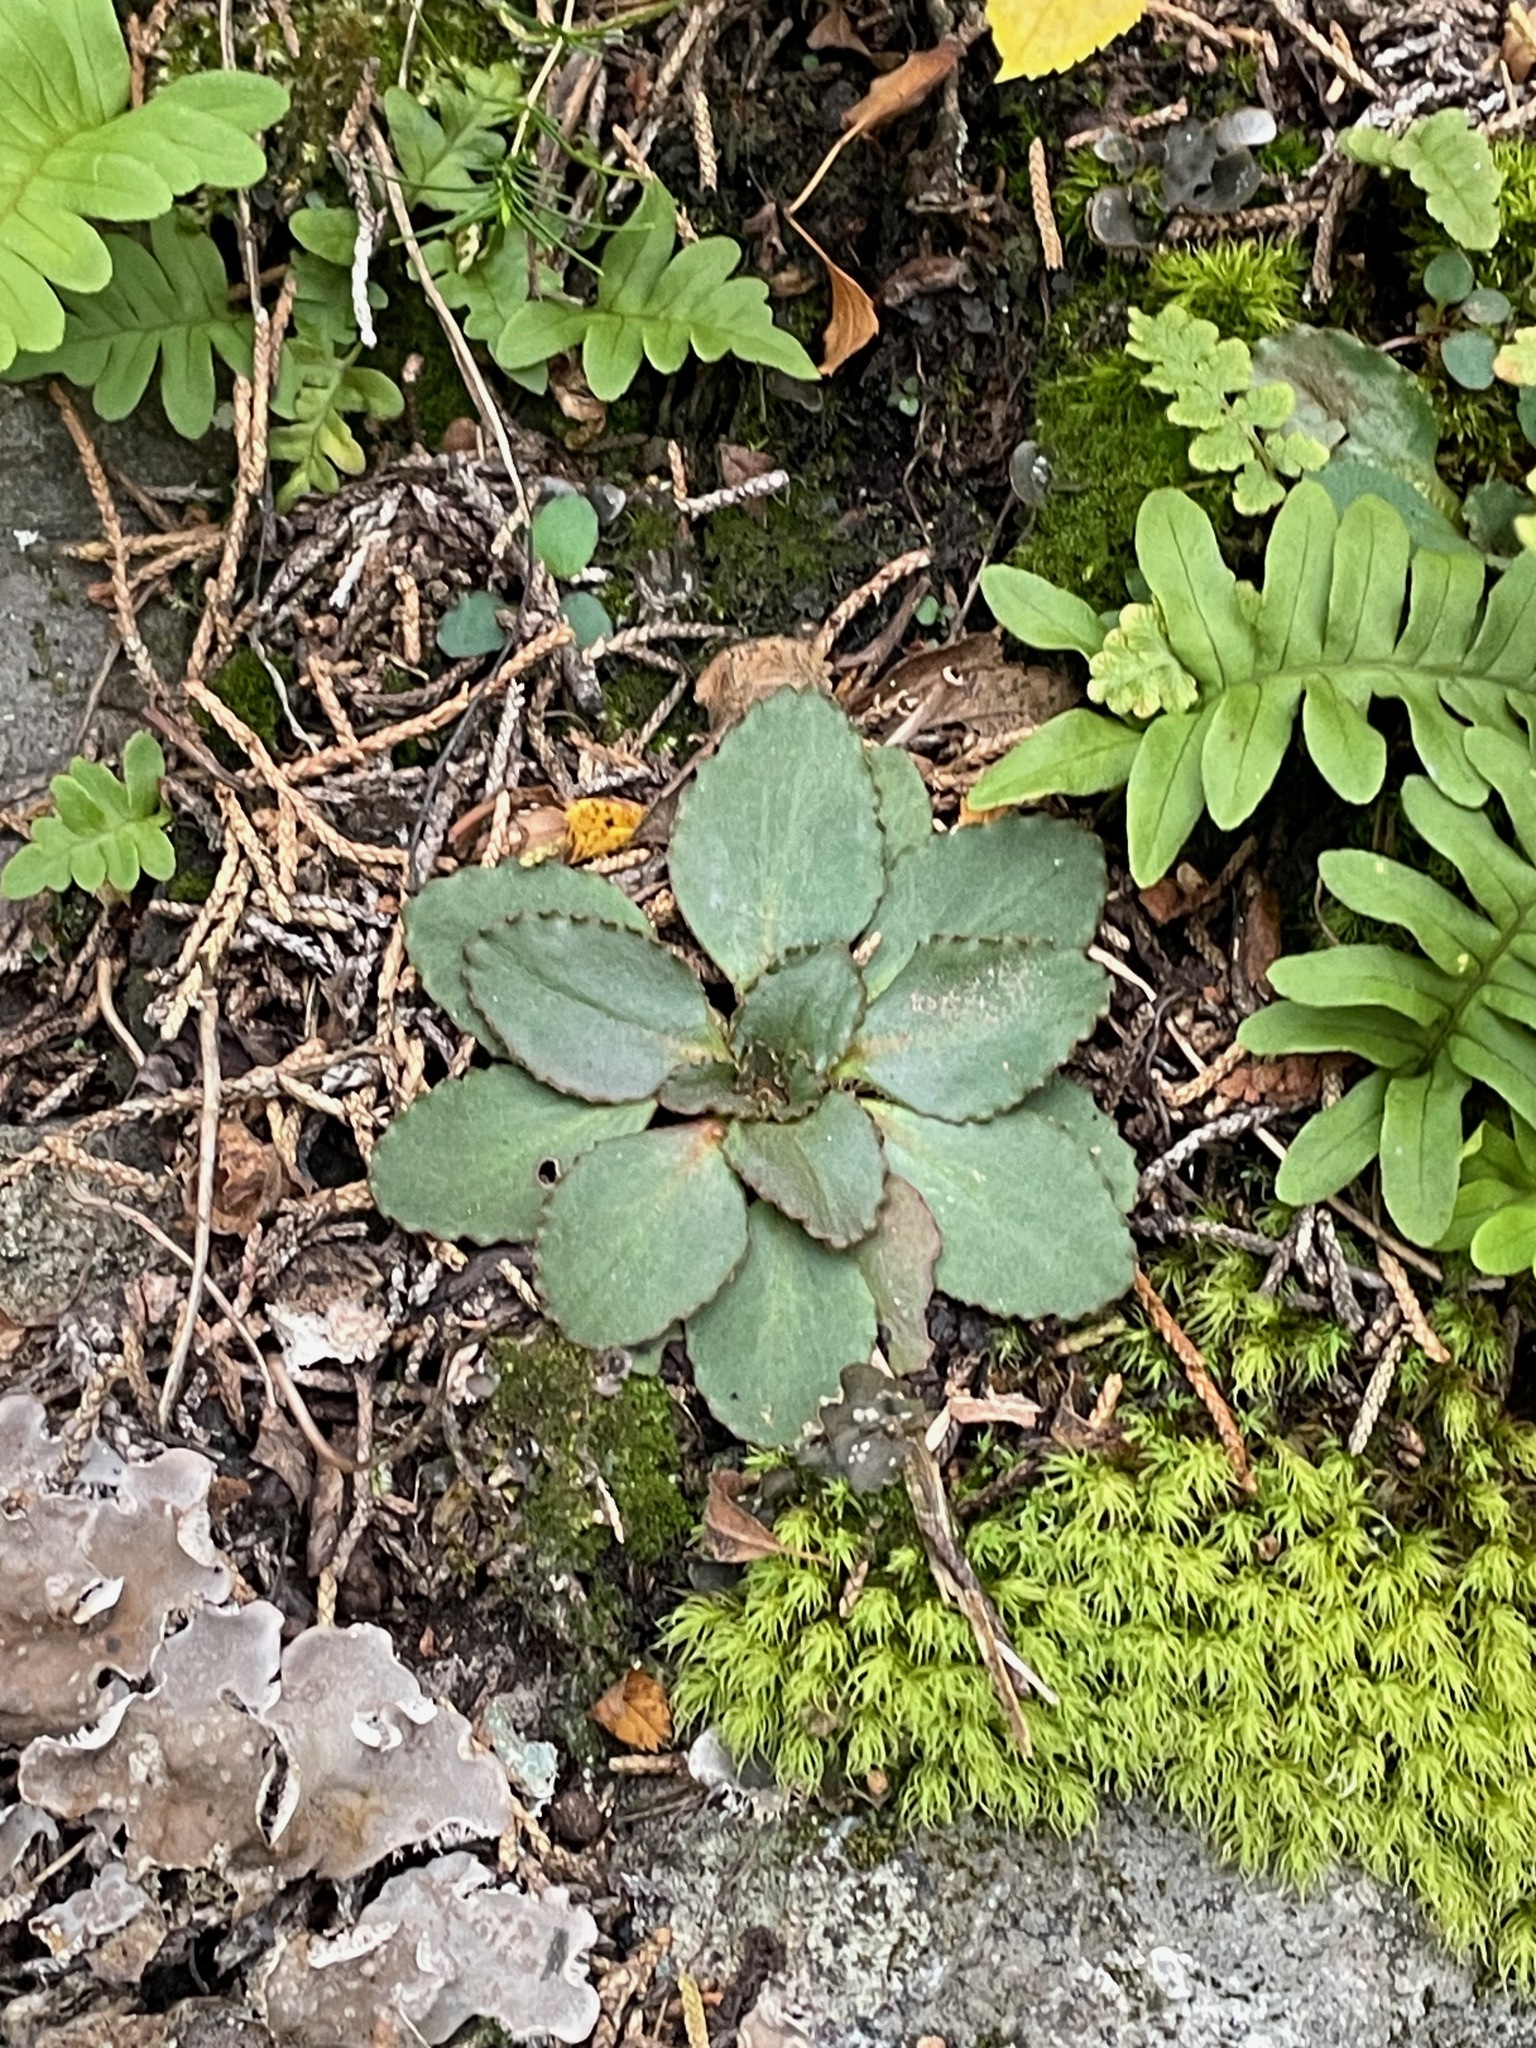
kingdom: Plantae
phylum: Tracheophyta
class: Magnoliopsida
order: Saxifragales
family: Saxifragaceae
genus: Micranthes
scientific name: Micranthes virginiensis
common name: Early saxifrage
